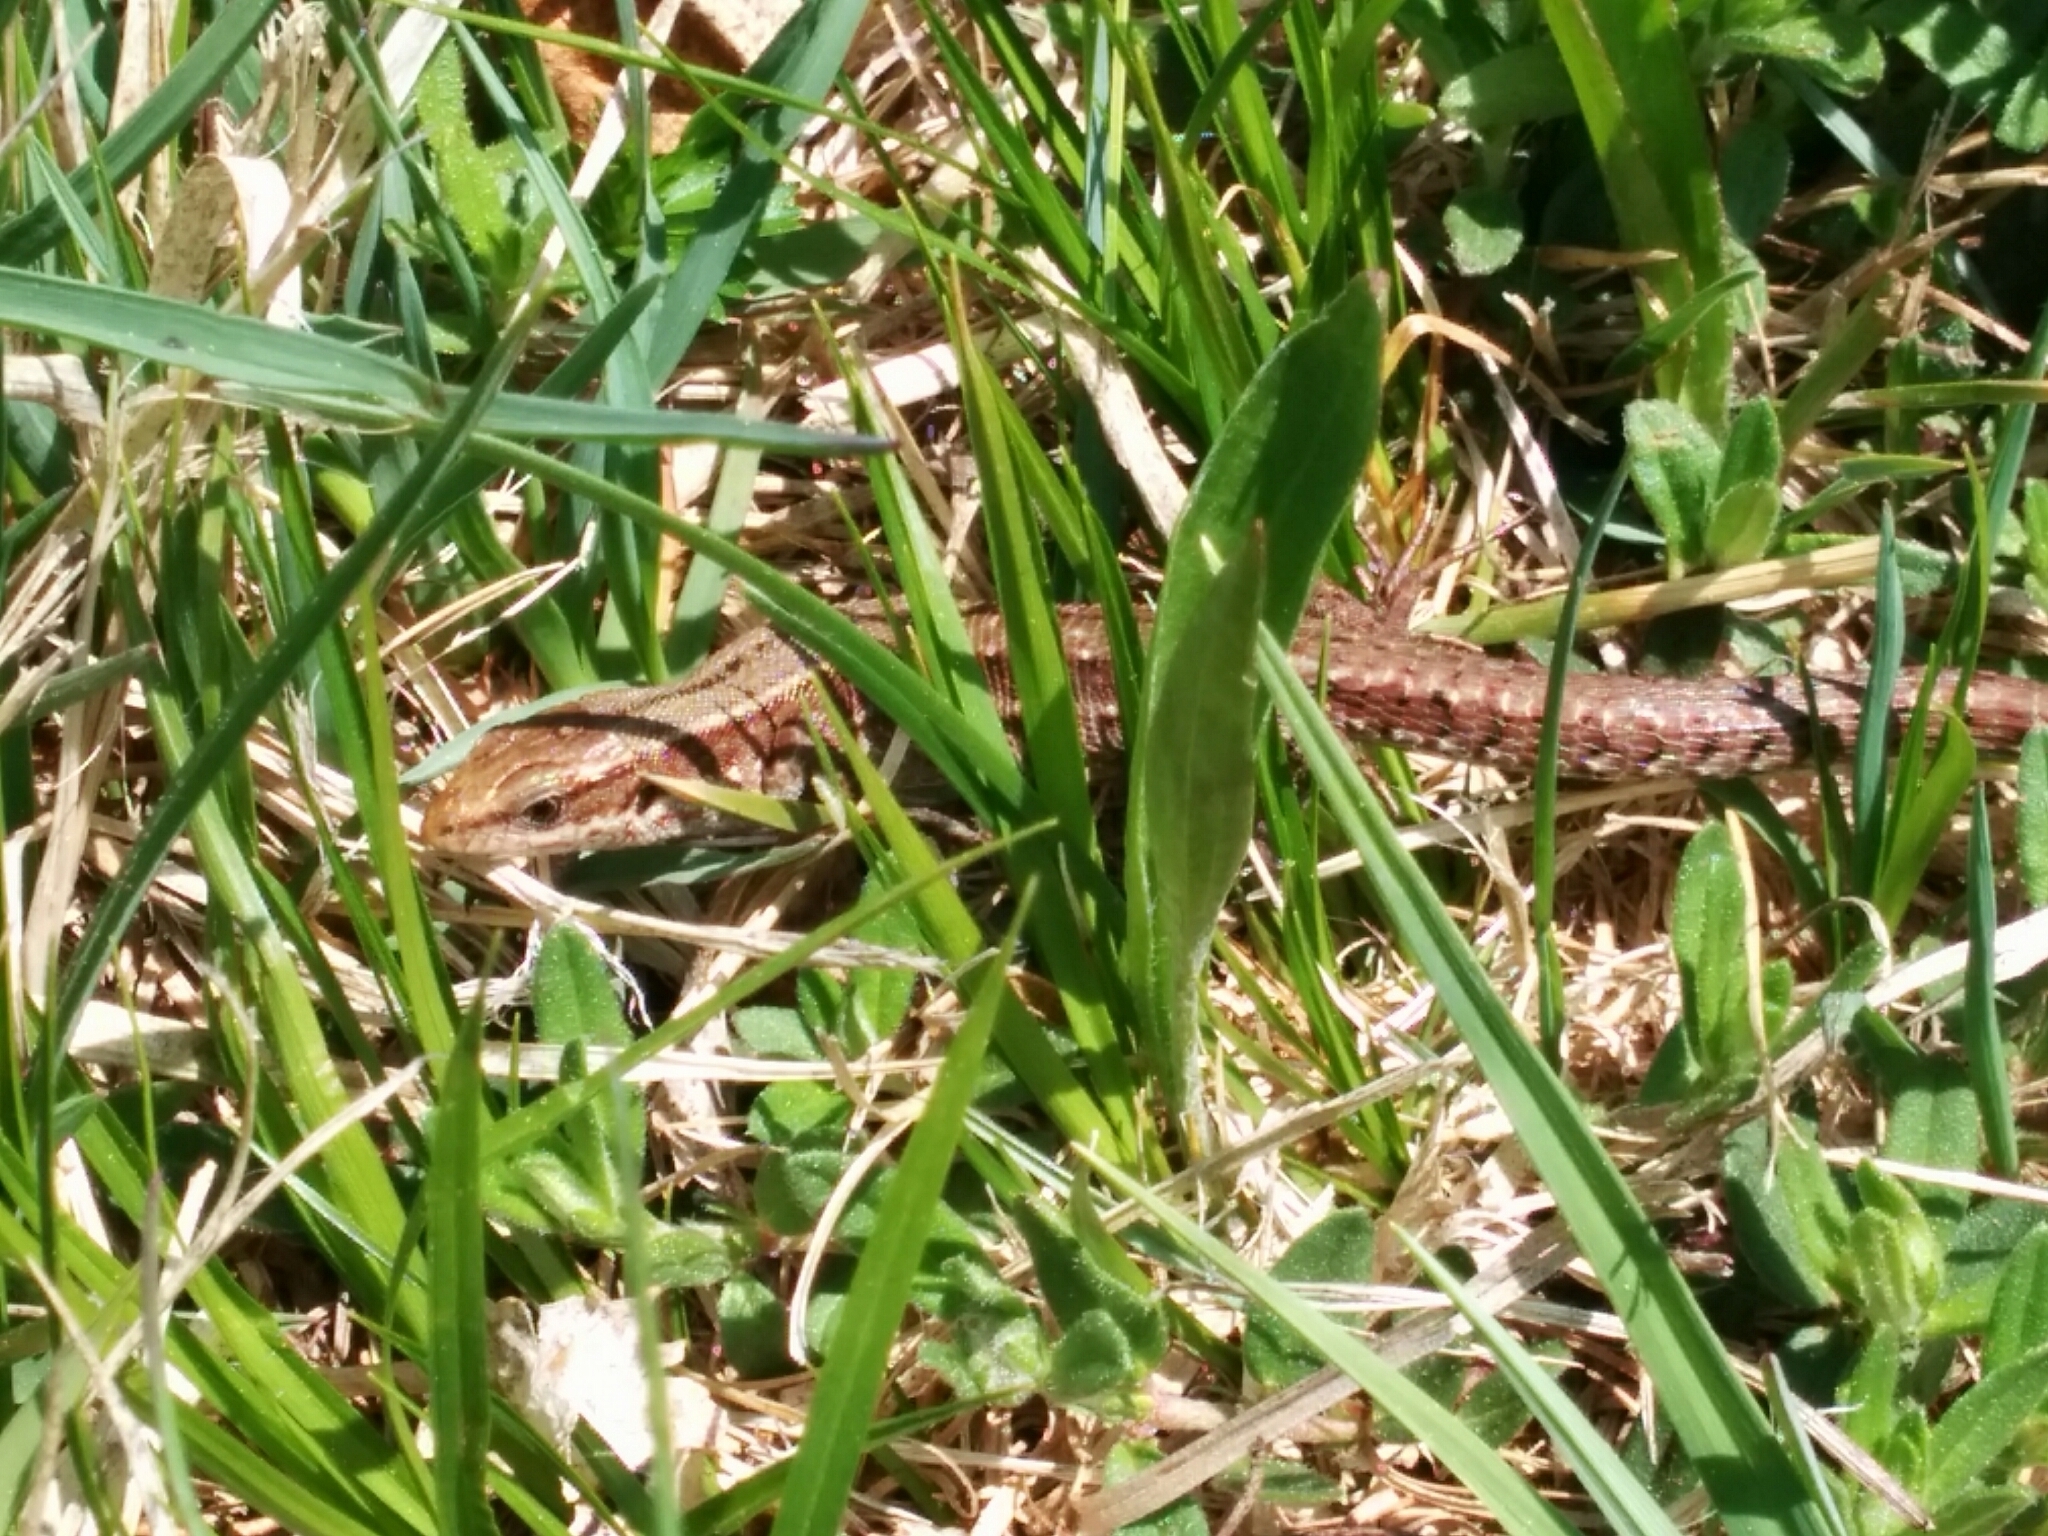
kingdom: Animalia
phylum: Chordata
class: Squamata
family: Lacertidae
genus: Zootoca
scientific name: Zootoca
